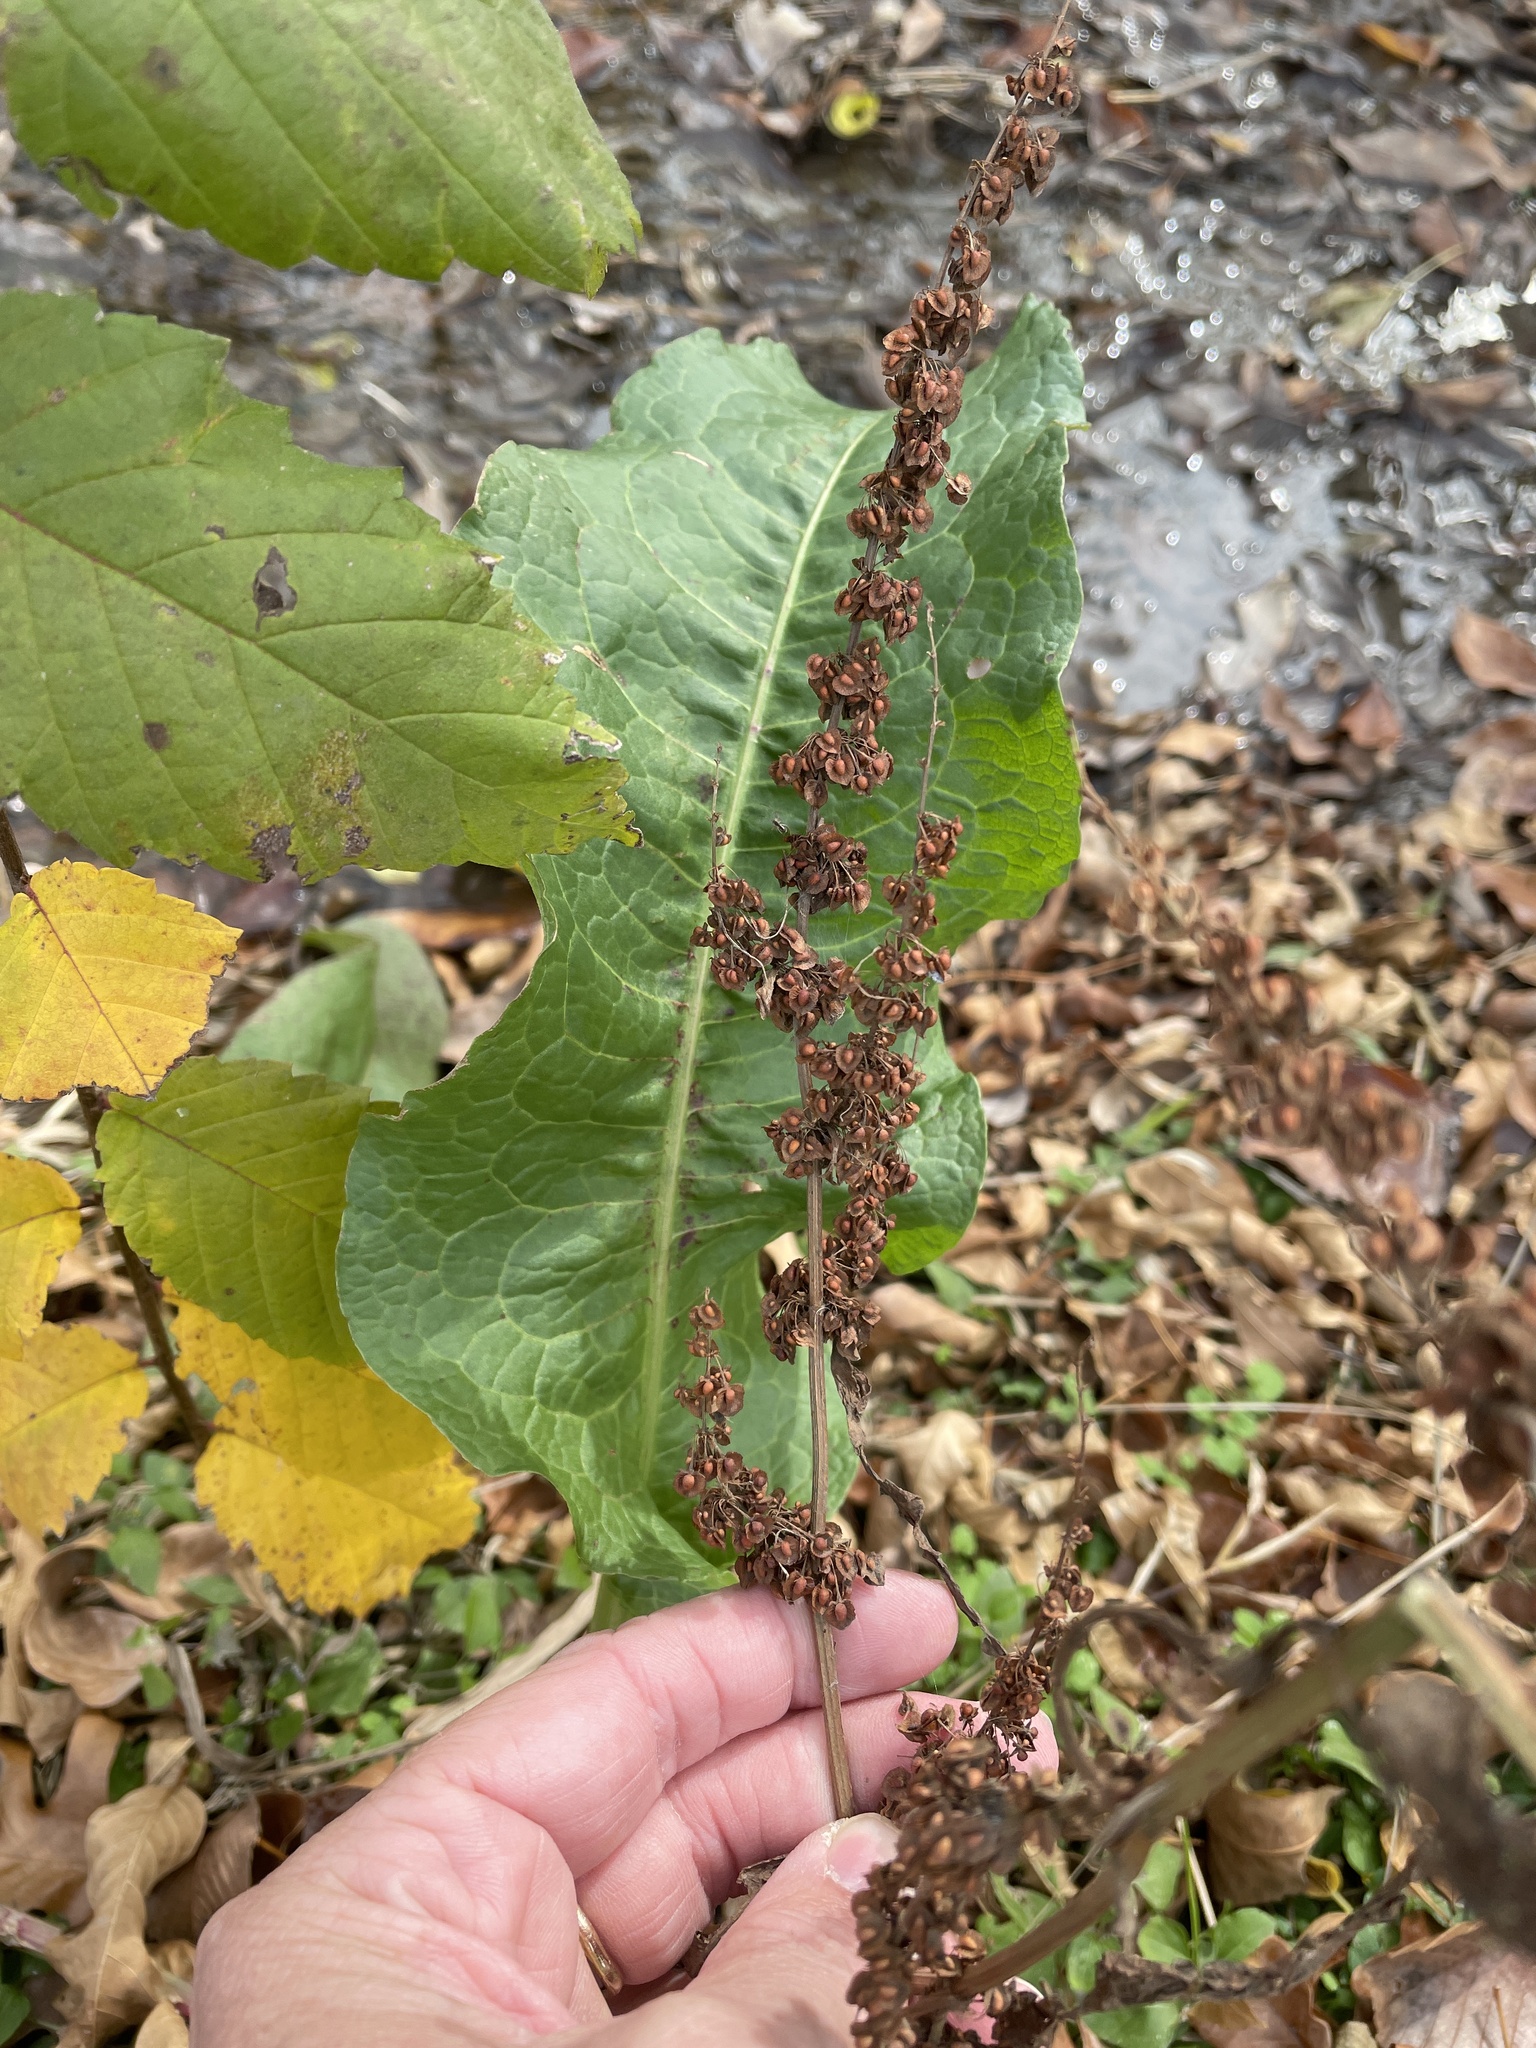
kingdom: Plantae
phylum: Tracheophyta
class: Magnoliopsida
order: Caryophyllales
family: Polygonaceae
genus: Rumex
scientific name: Rumex crispus
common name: Curled dock
